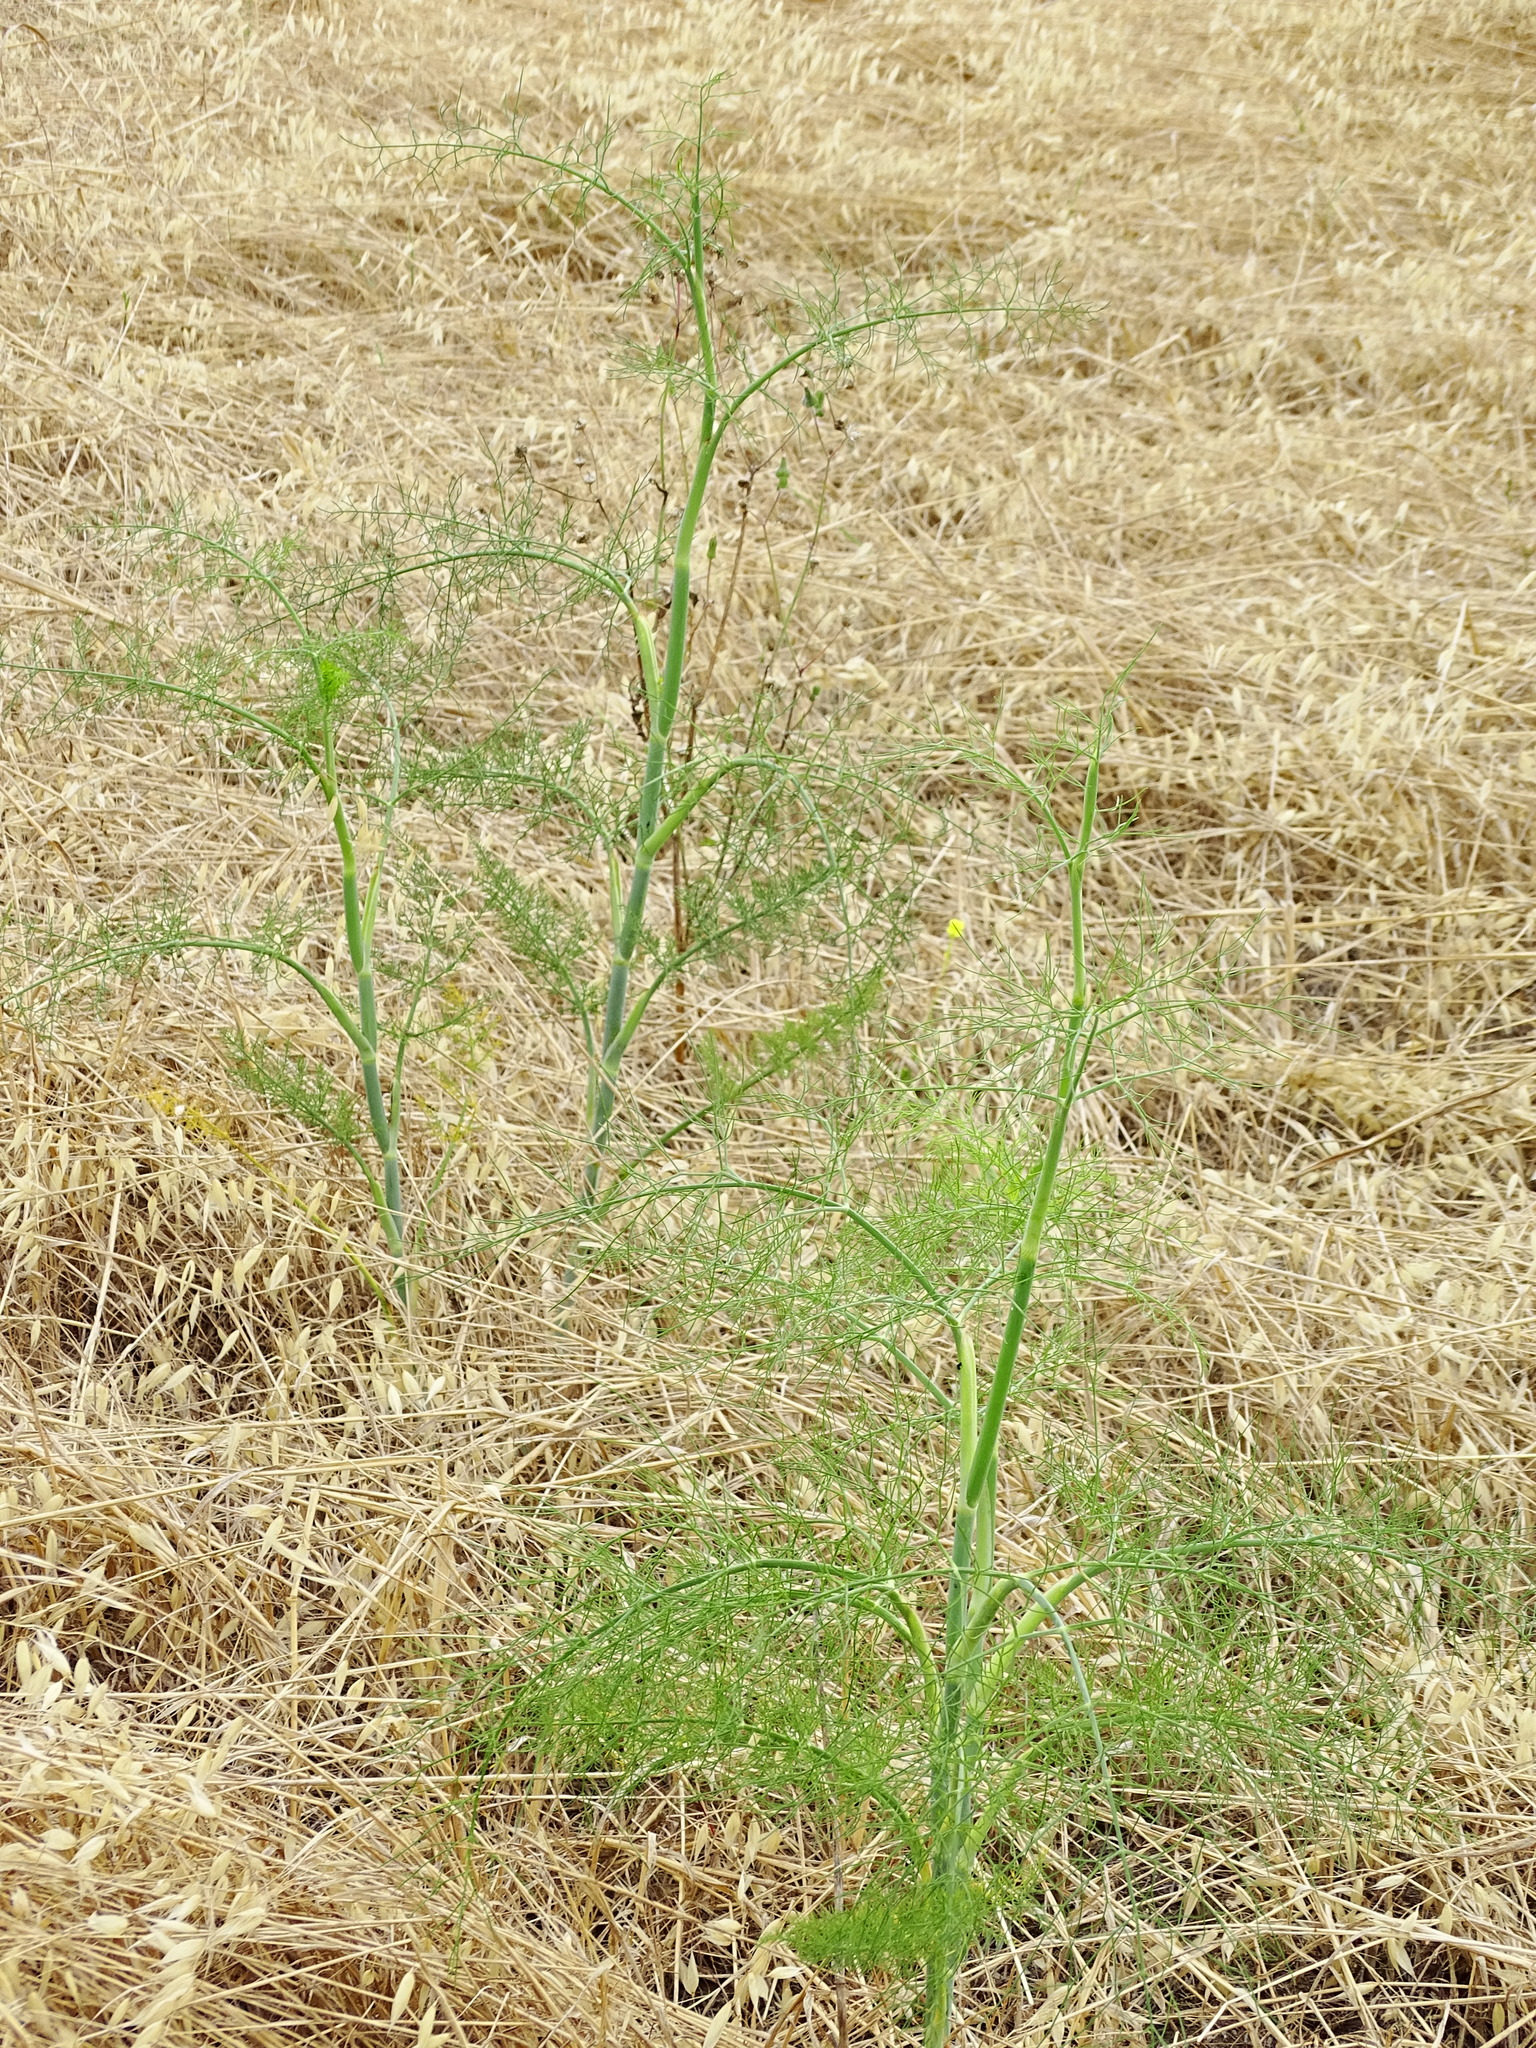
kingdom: Plantae
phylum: Tracheophyta
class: Magnoliopsida
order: Apiales
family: Apiaceae
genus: Foeniculum
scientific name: Foeniculum vulgare
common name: Fennel
